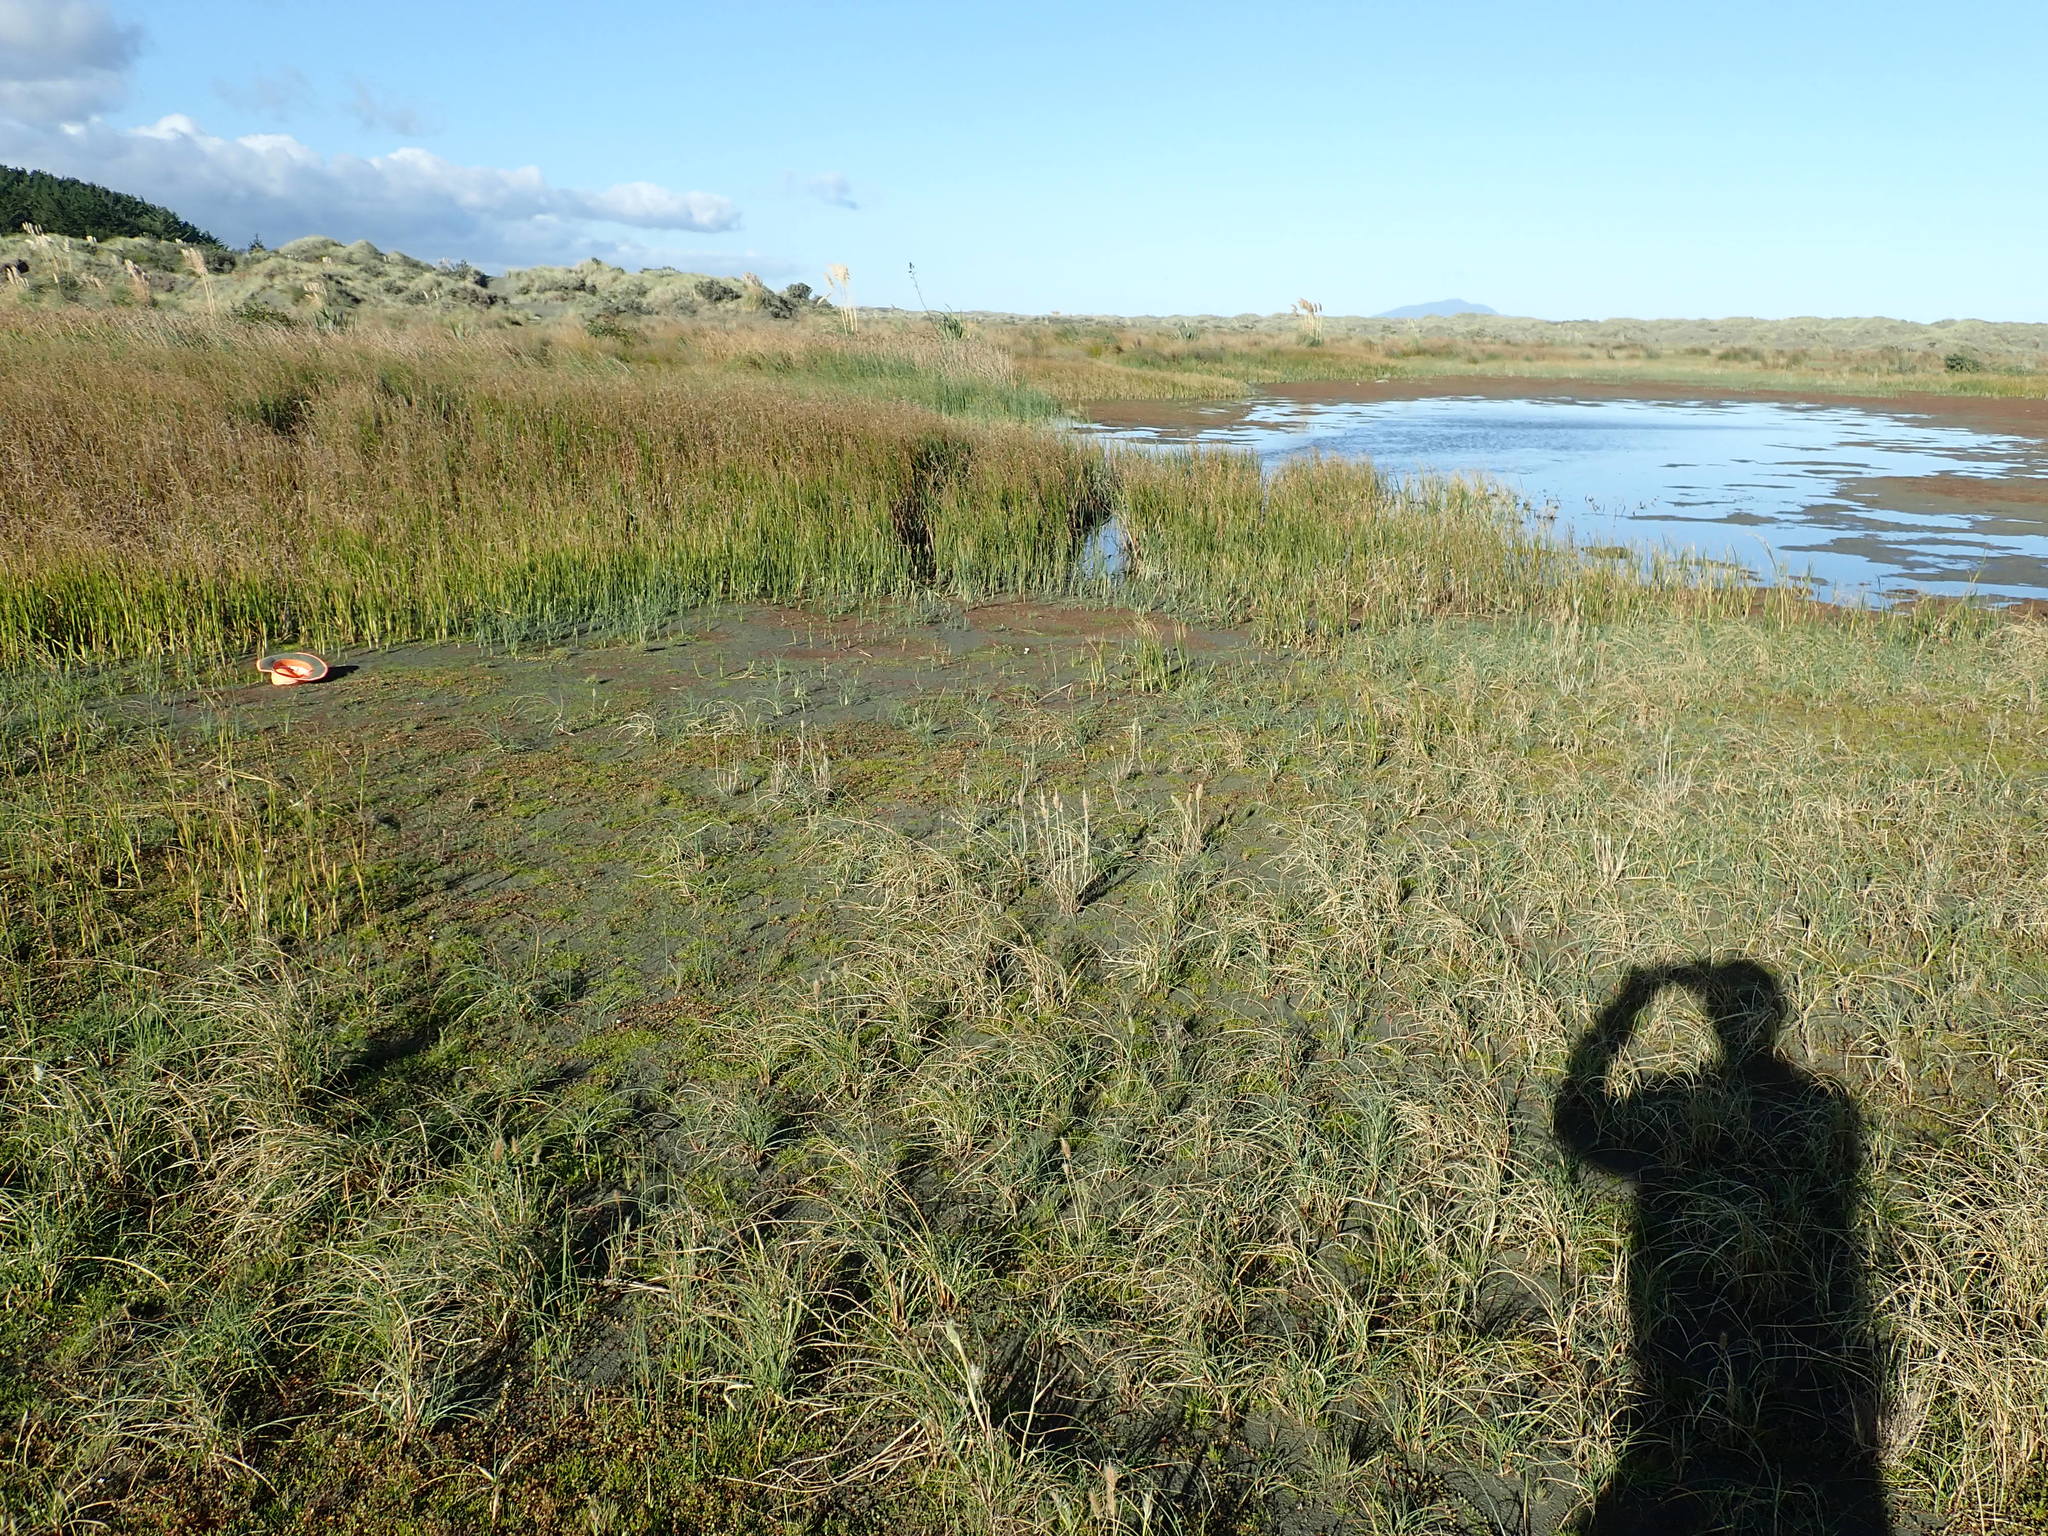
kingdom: Plantae
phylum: Tracheophyta
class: Magnoliopsida
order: Lamiales
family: Scrophulariaceae
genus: Limosella
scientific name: Limosella australis
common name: Welsh mudwort
